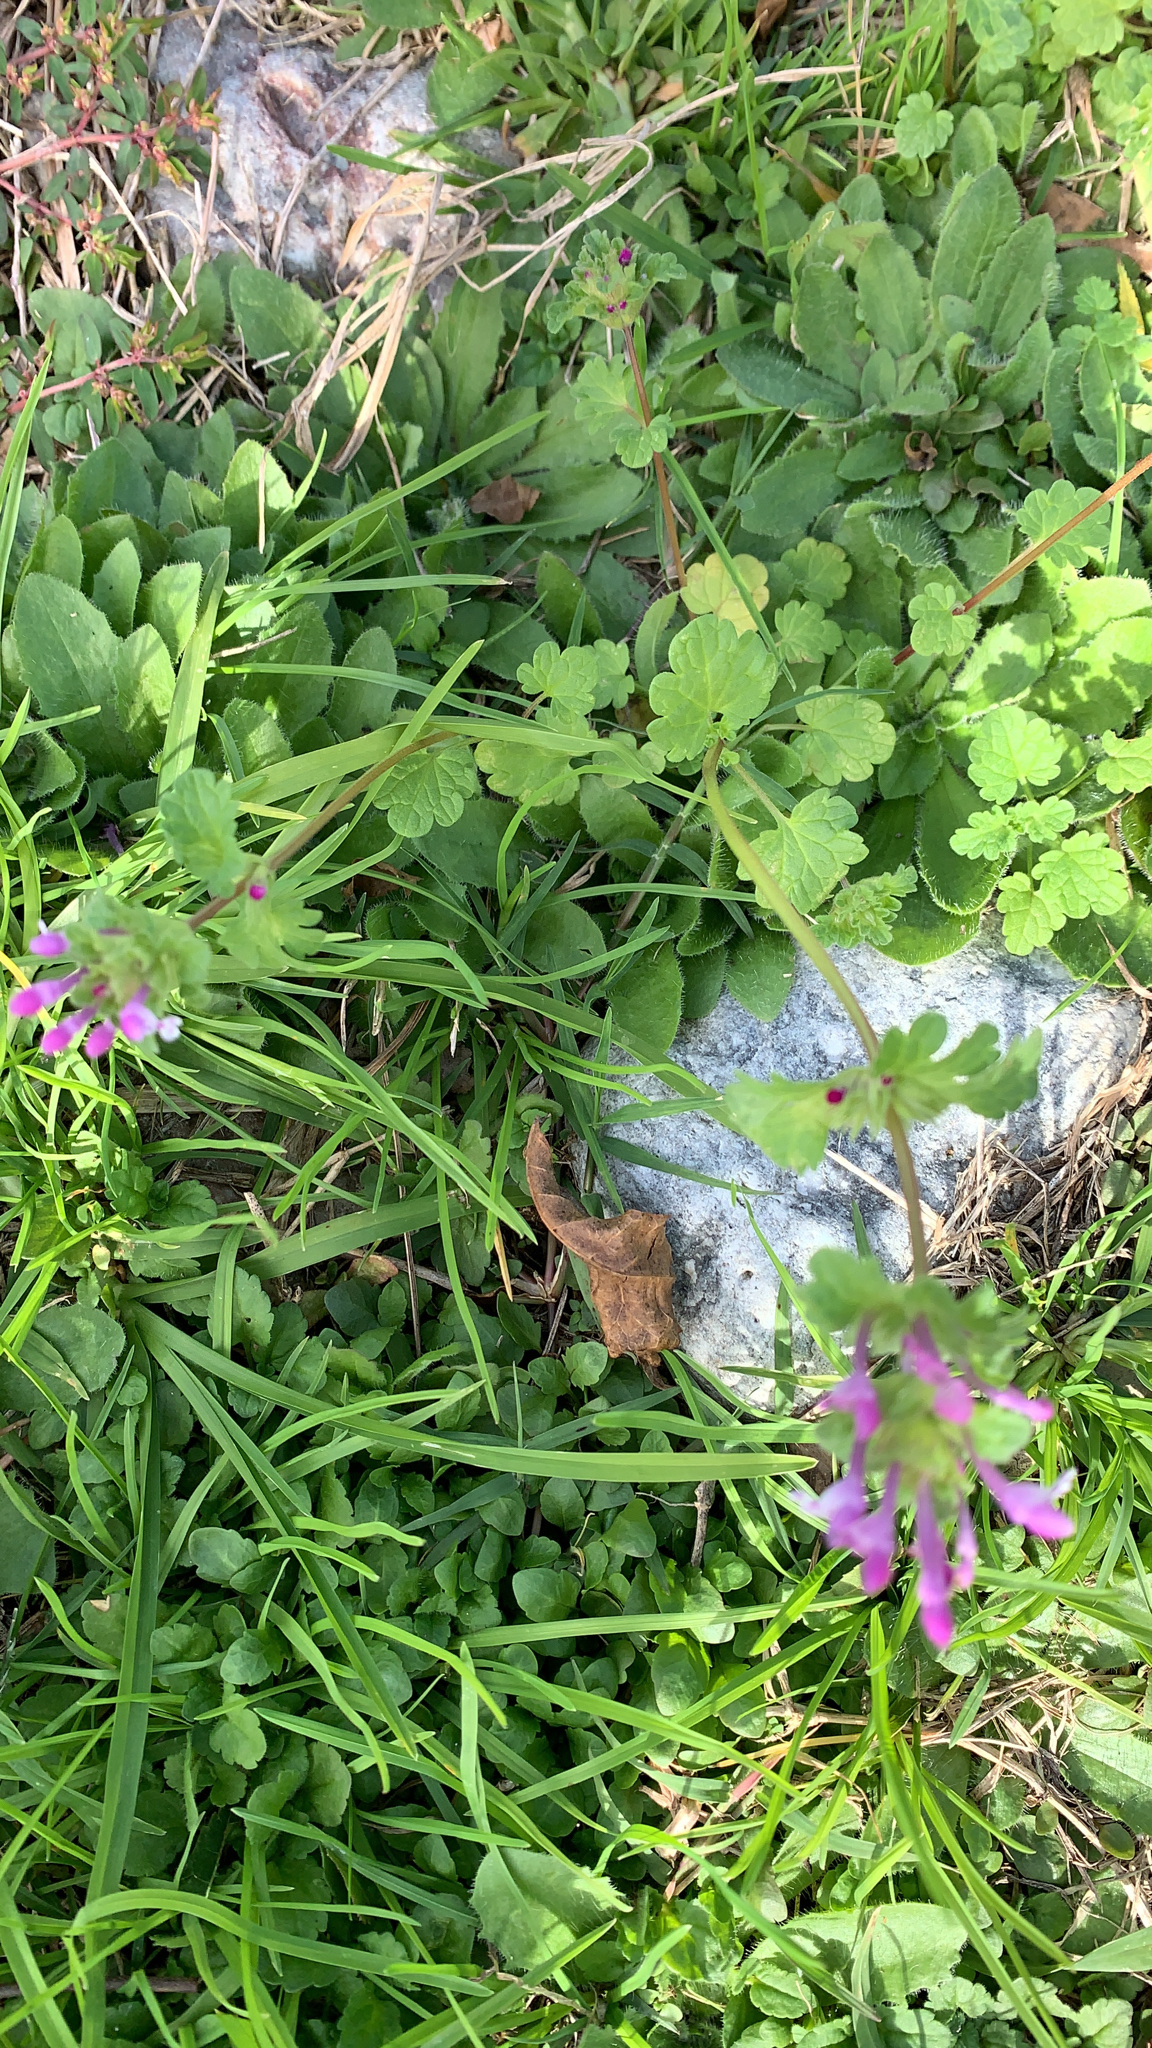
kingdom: Plantae
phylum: Tracheophyta
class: Magnoliopsida
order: Lamiales
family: Lamiaceae
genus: Lamium
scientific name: Lamium amplexicaule
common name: Henbit dead-nettle
